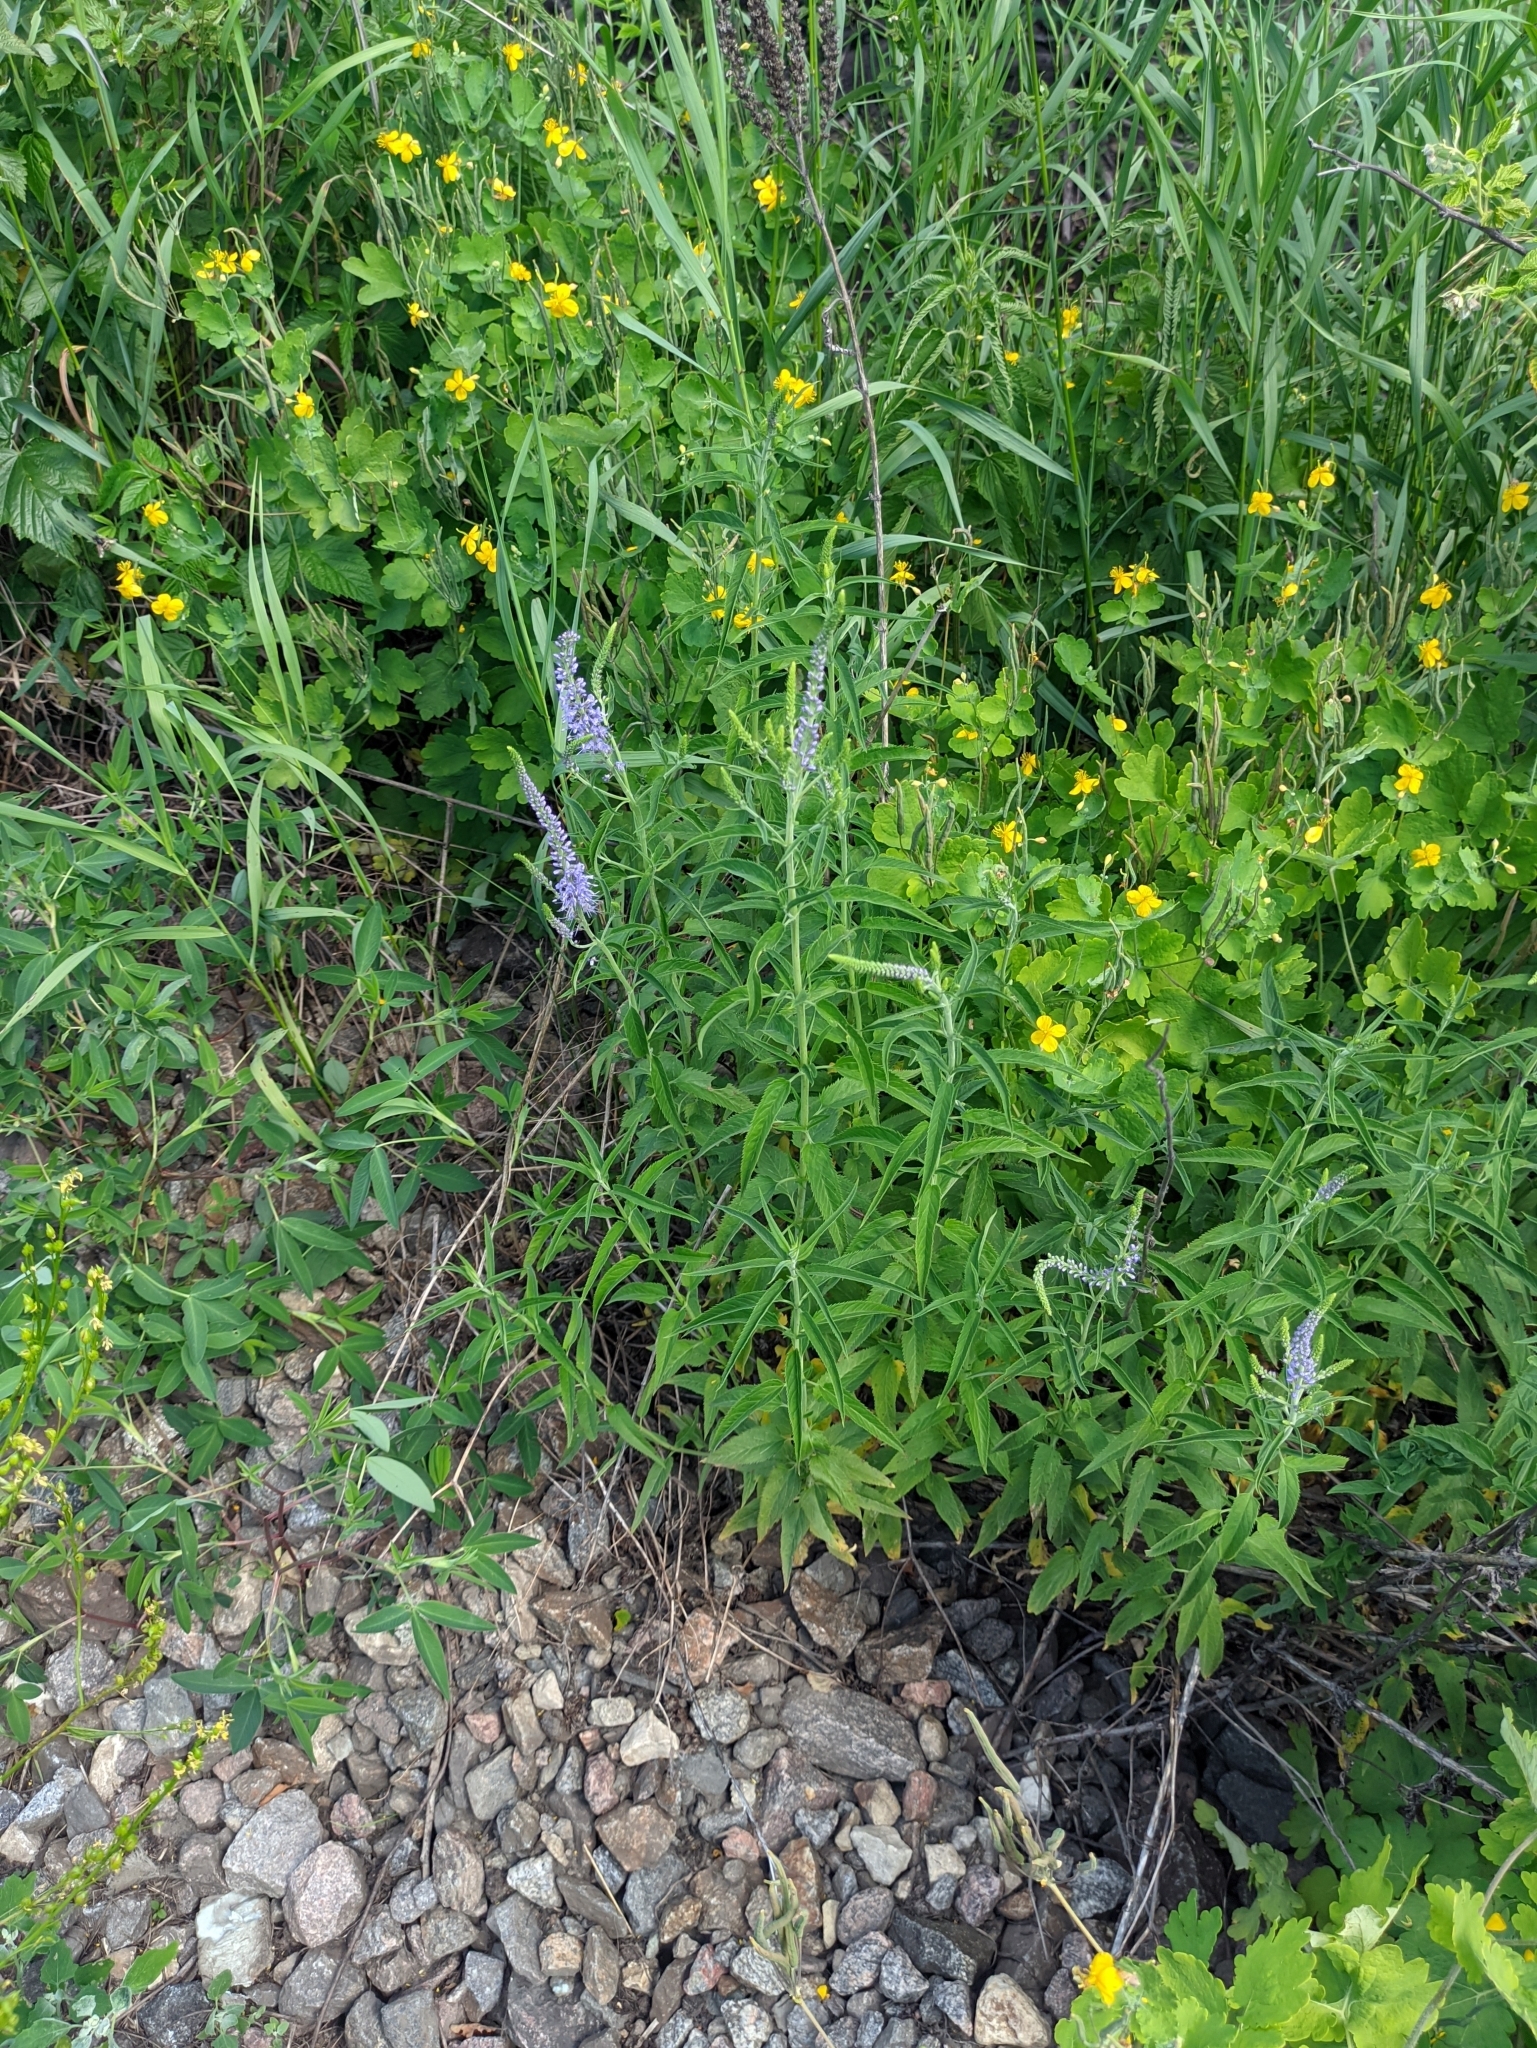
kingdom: Plantae
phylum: Tracheophyta
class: Magnoliopsida
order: Lamiales
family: Plantaginaceae
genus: Veronica
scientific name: Veronica longifolia
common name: Garden speedwell
